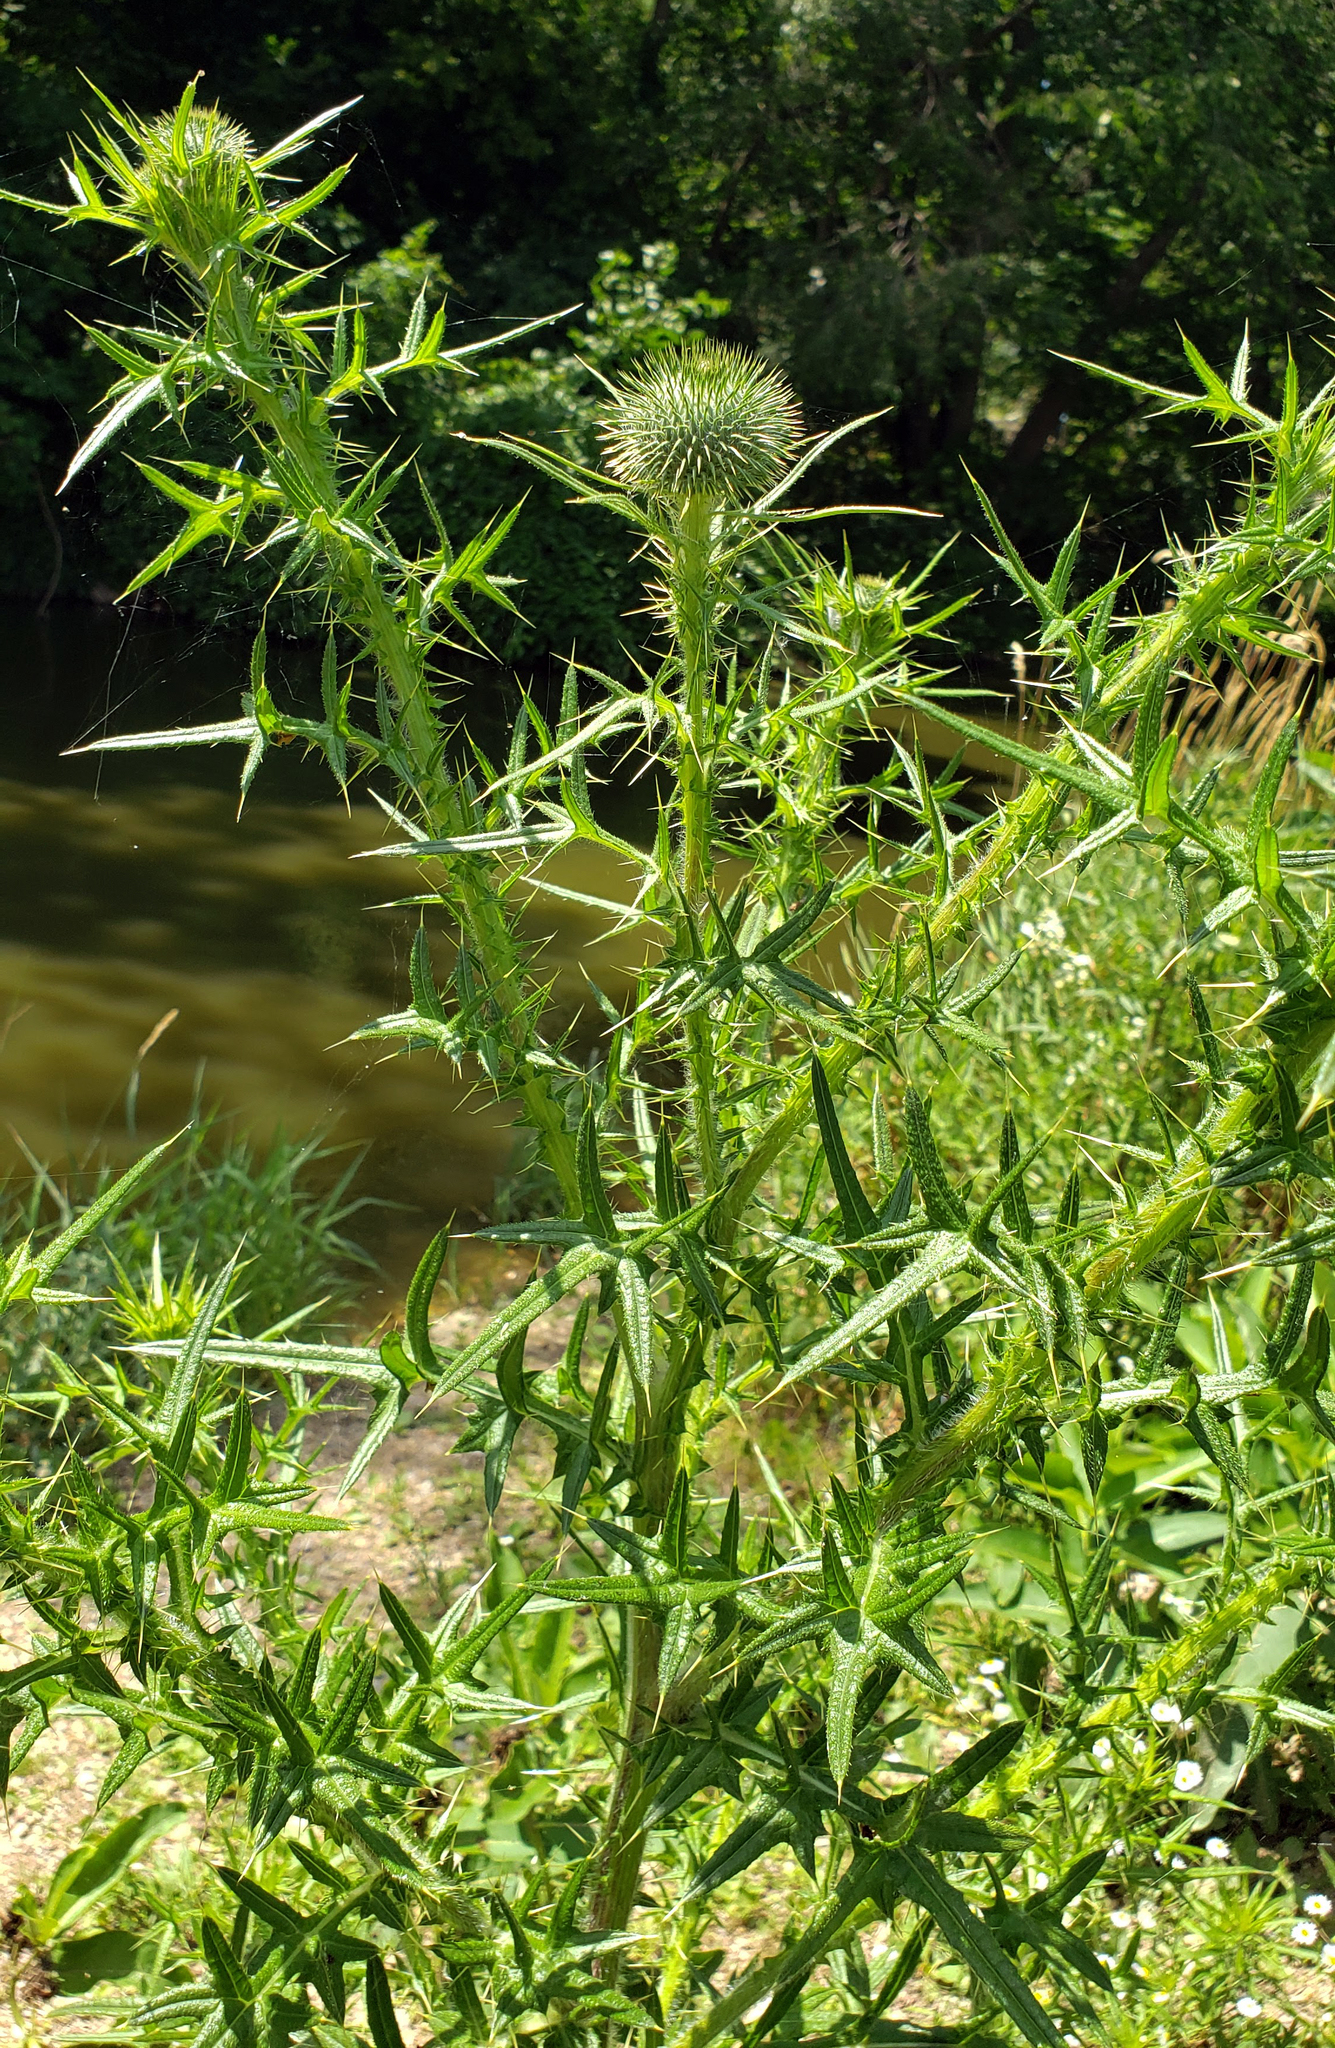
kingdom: Plantae
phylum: Tracheophyta
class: Magnoliopsida
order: Asterales
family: Asteraceae
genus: Cirsium
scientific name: Cirsium vulgare
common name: Bull thistle
